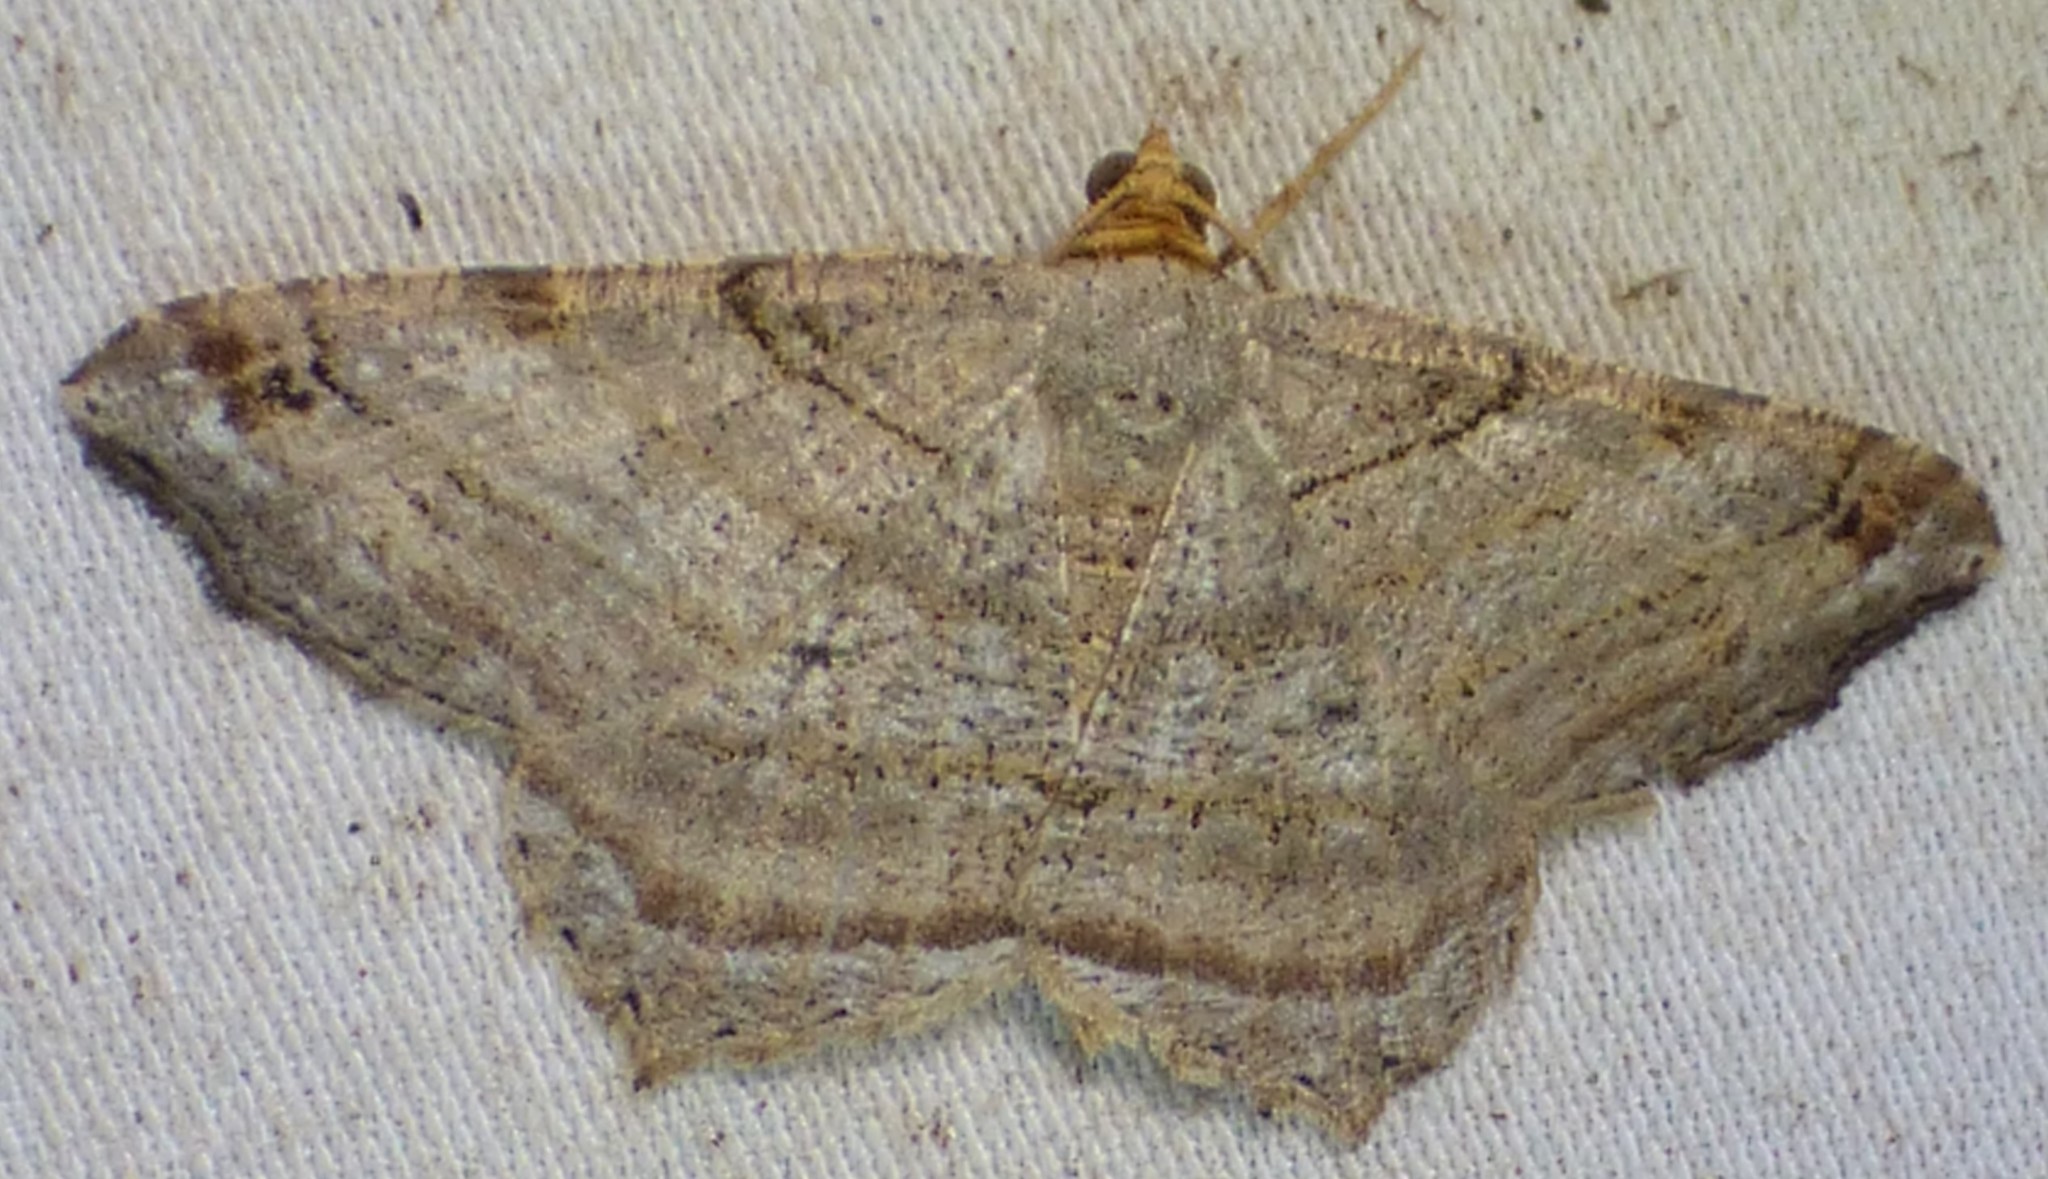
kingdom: Animalia
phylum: Arthropoda
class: Insecta
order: Lepidoptera
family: Geometridae
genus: Macaria
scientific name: Macaria multilineata
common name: Many-lined angle
